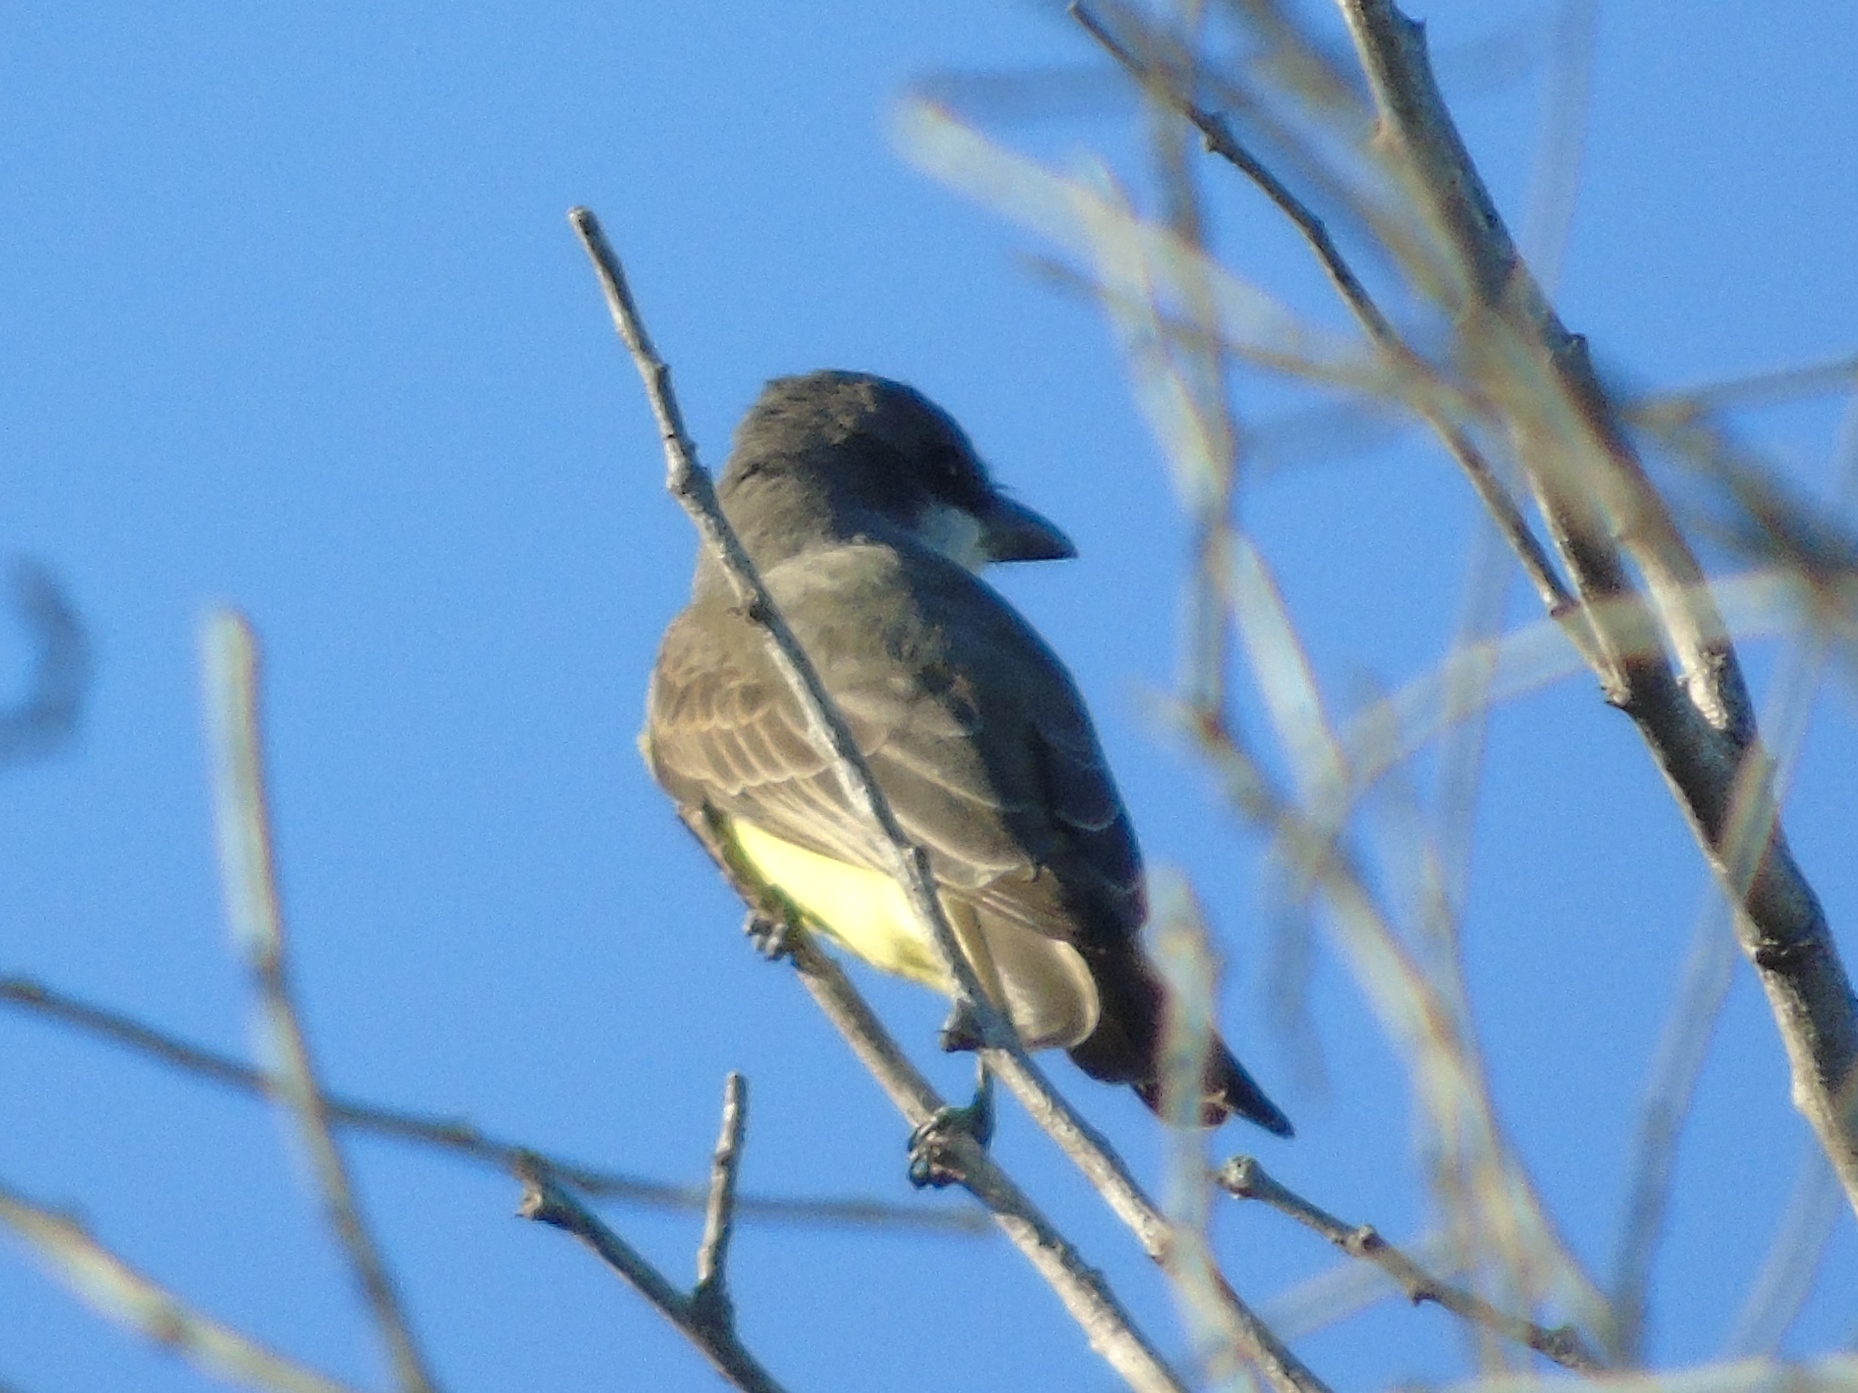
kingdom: Animalia
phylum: Chordata
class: Aves
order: Passeriformes
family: Tyrannidae
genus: Tyrannus
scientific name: Tyrannus crassirostris
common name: Thick-billed kingbird
